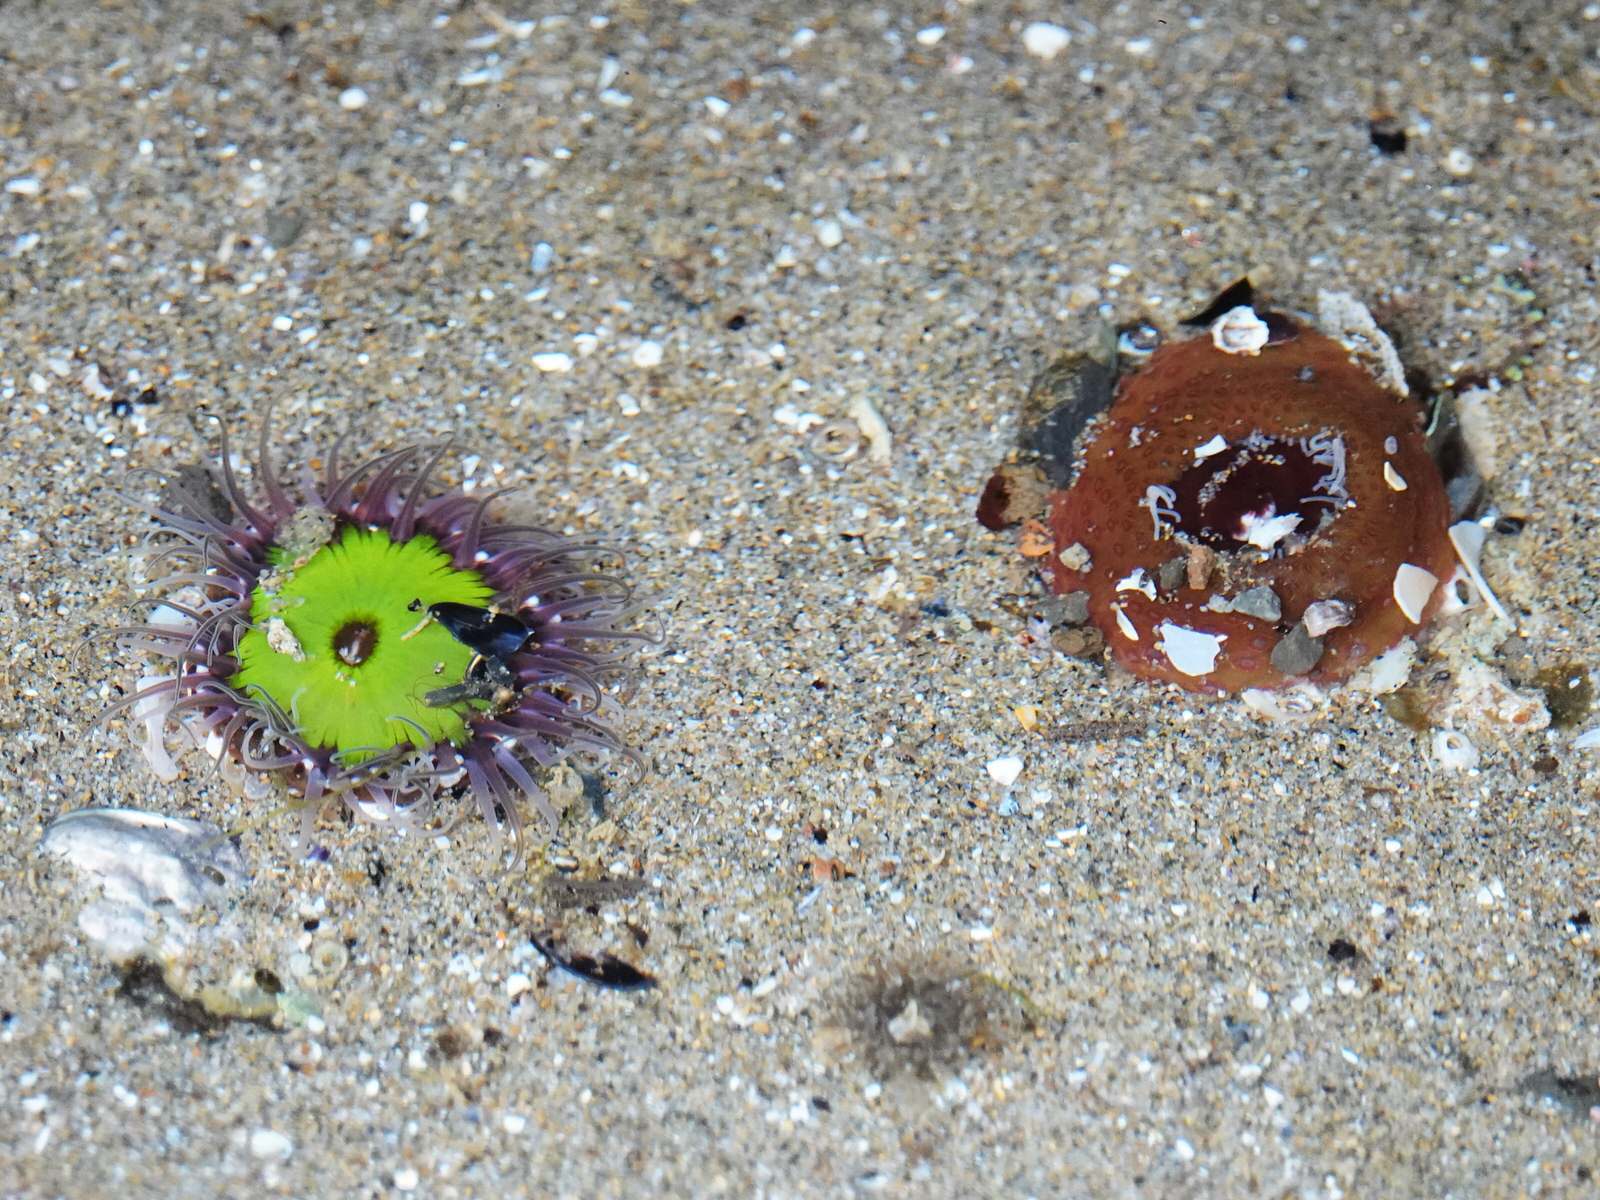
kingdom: Animalia
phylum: Cnidaria
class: Anthozoa
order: Actiniaria
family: Actiniidae
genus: Oulactis
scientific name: Oulactis magna
